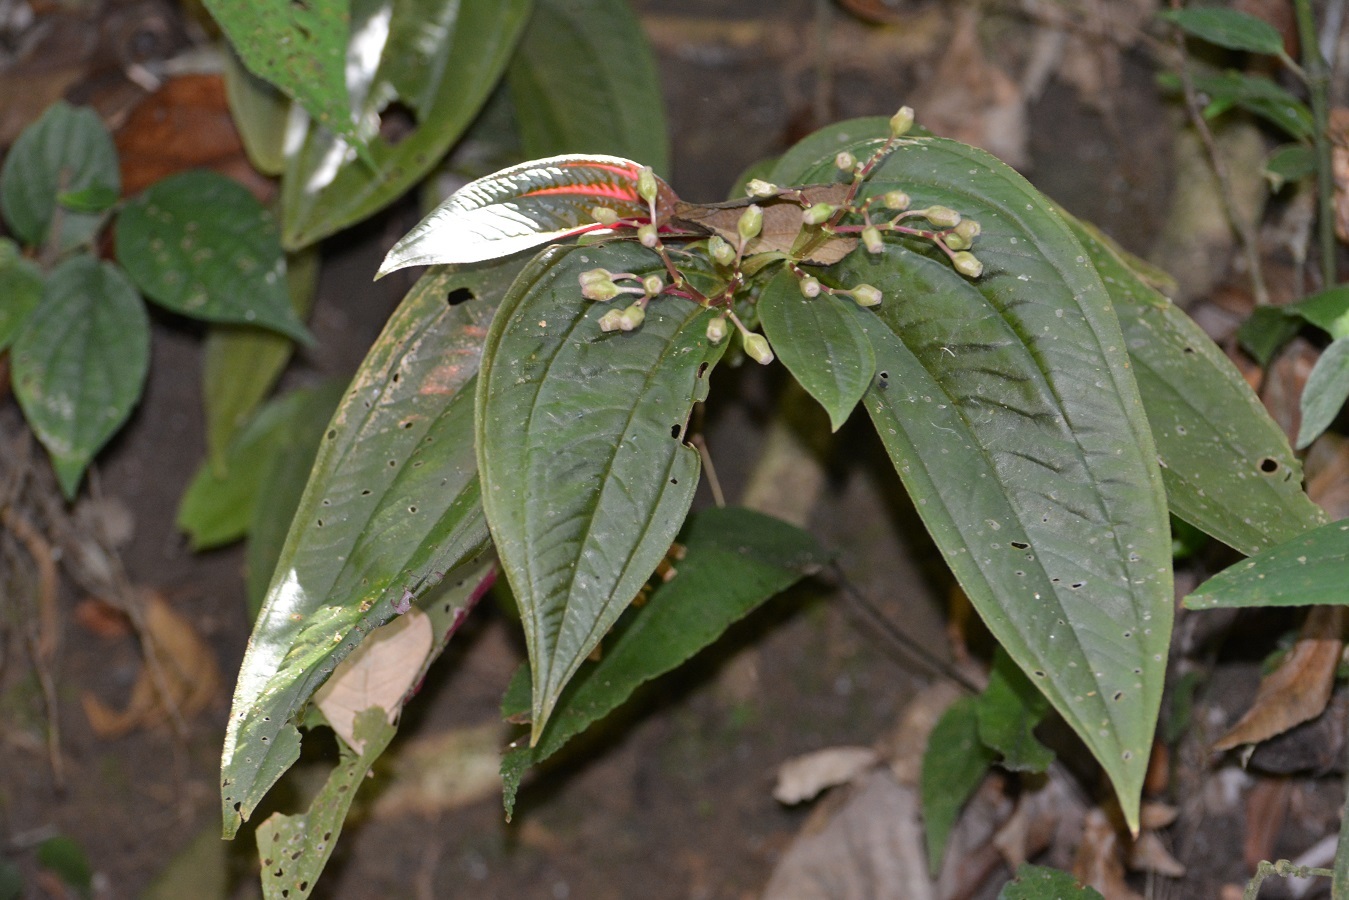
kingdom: Plantae
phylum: Tracheophyta
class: Magnoliopsida
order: Myrtales
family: Melastomataceae
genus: Centradenia
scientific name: Centradenia grandifolia
